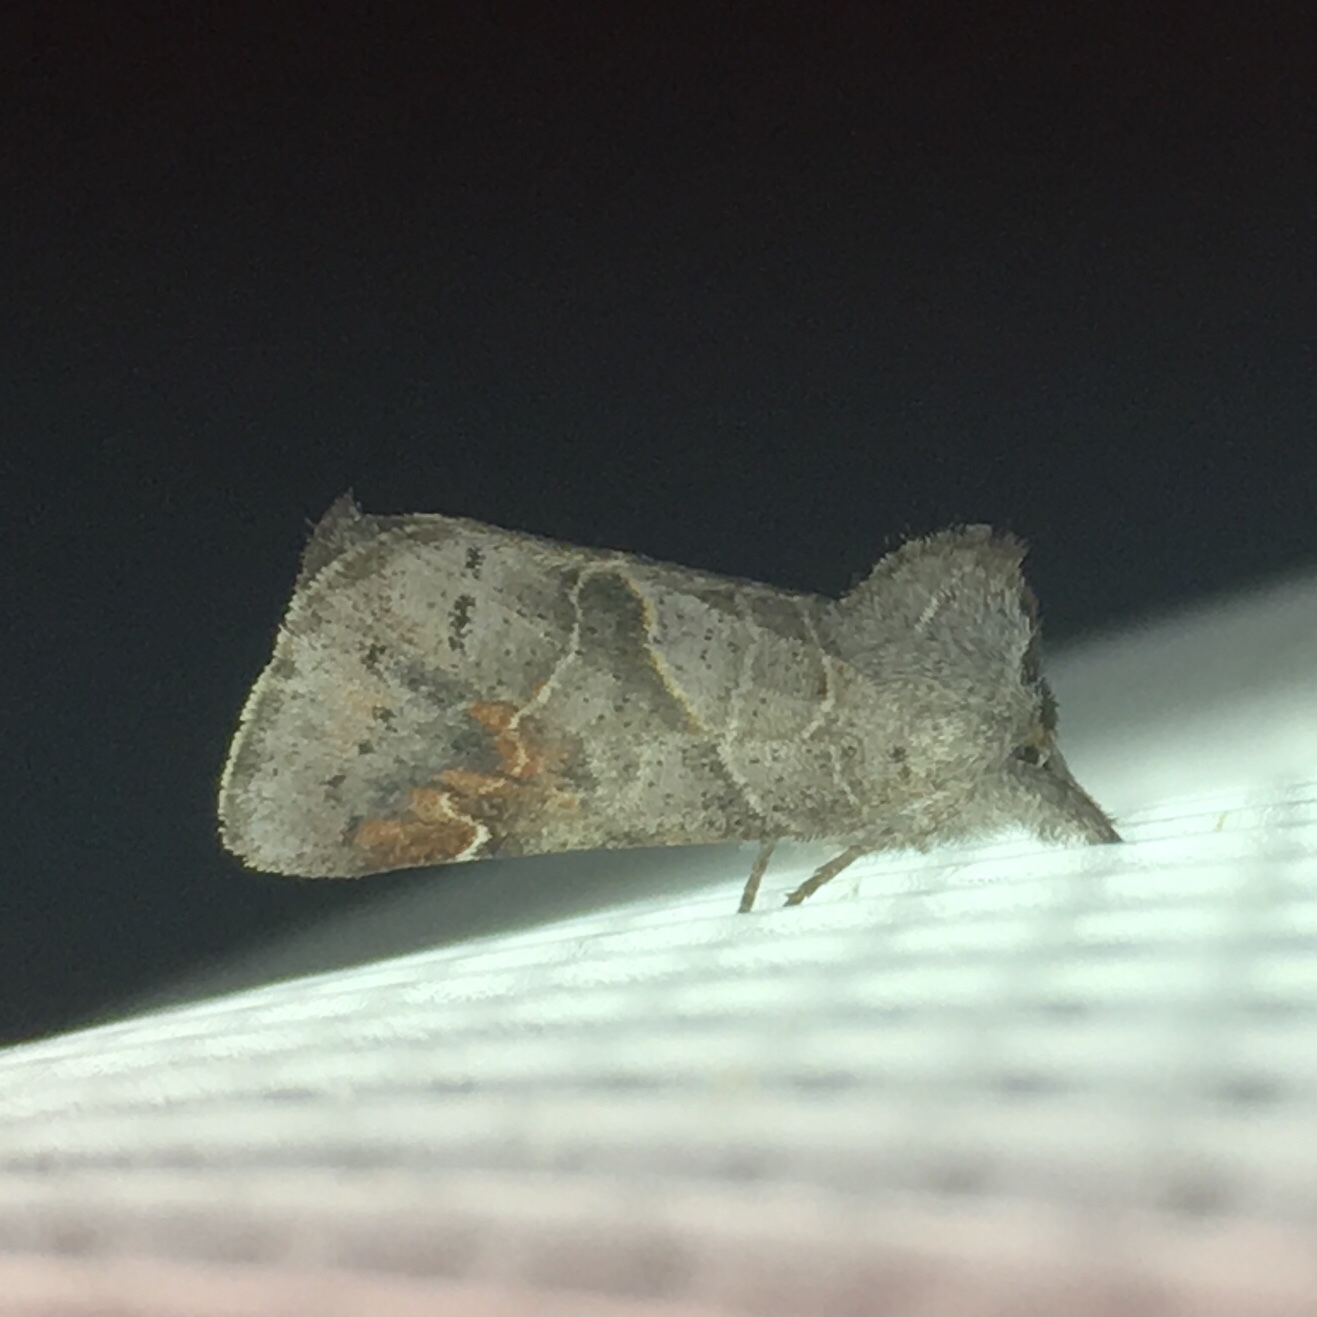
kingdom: Animalia
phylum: Arthropoda
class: Insecta
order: Lepidoptera
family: Notodontidae
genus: Clostera
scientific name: Clostera apicalis
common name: Apical prominent
